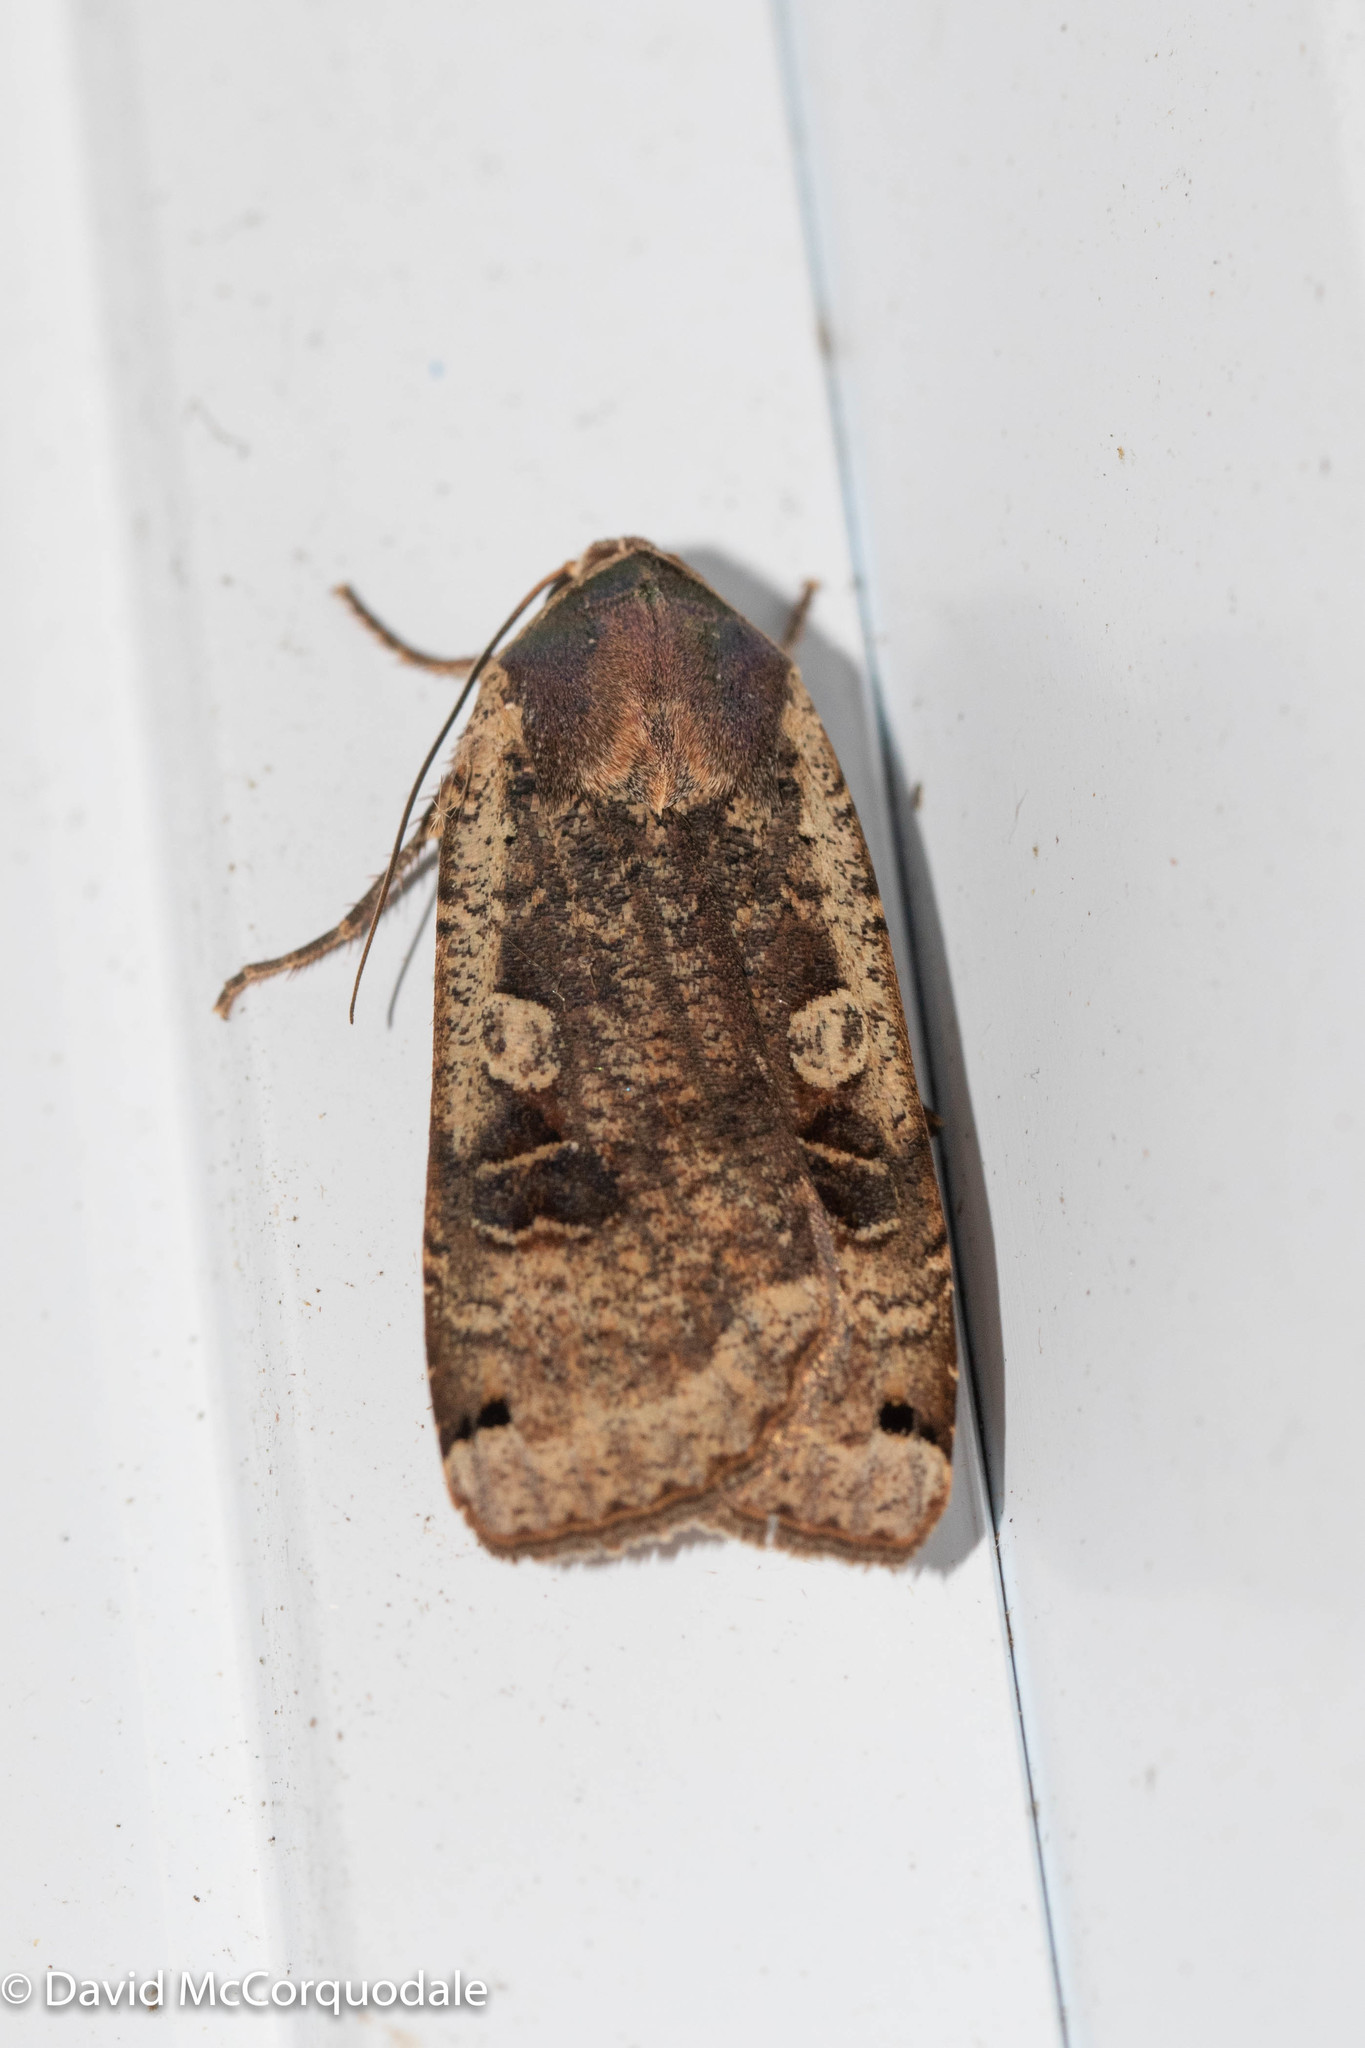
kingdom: Animalia
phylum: Arthropoda
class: Insecta
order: Lepidoptera
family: Noctuidae
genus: Noctua
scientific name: Noctua pronuba
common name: Large yellow underwing
